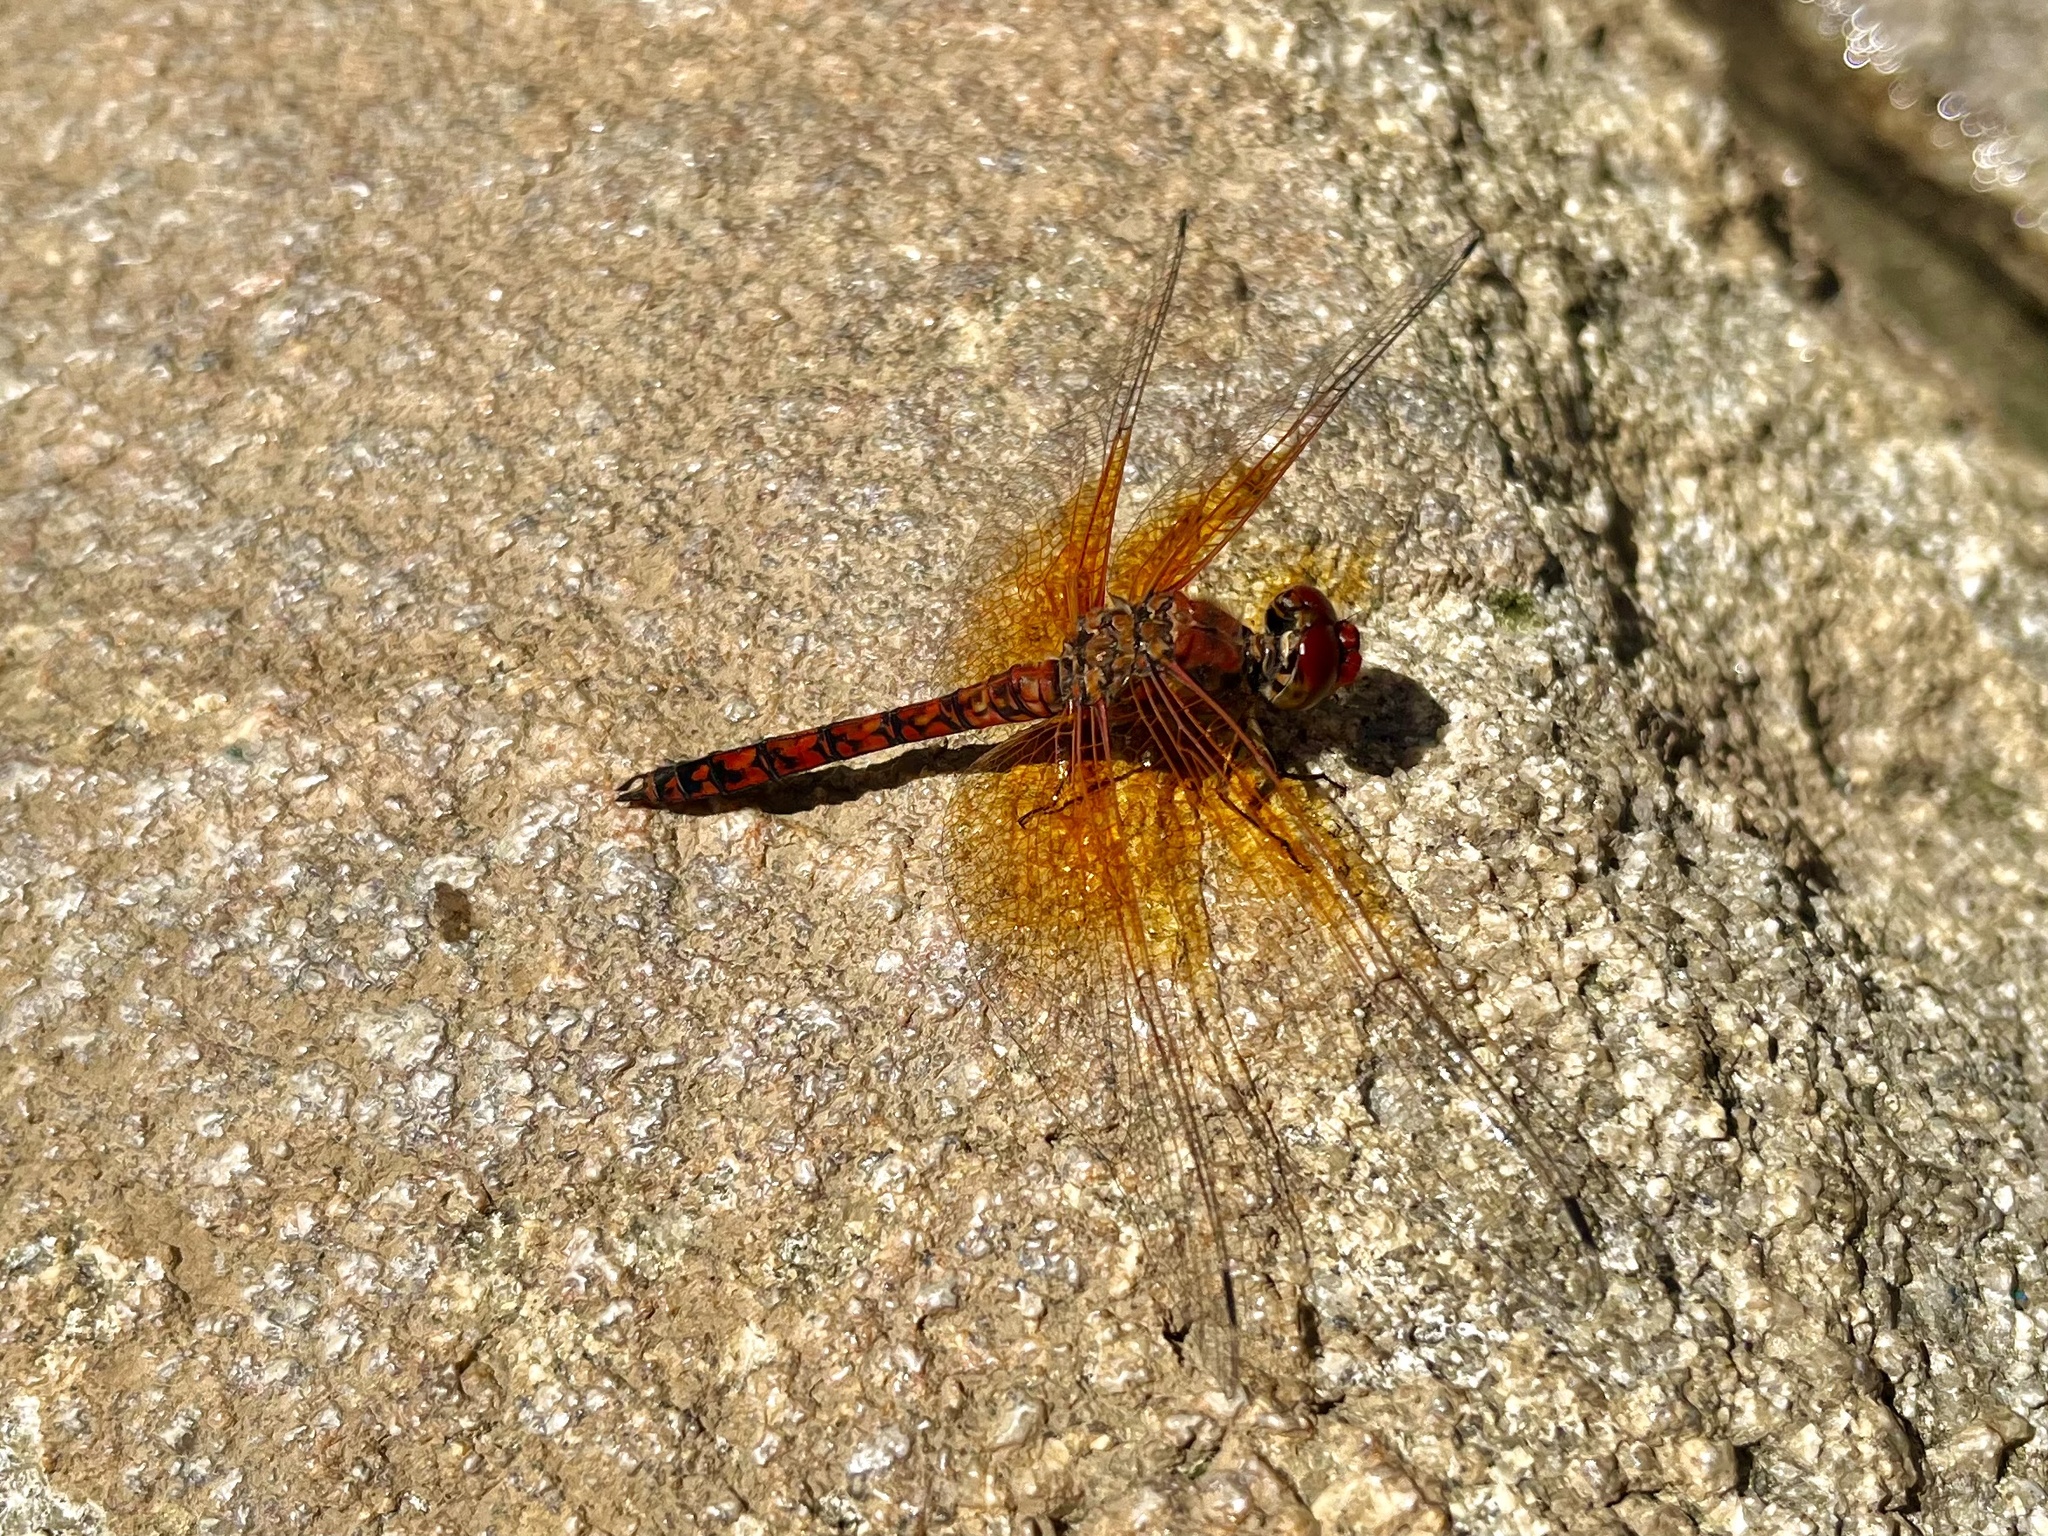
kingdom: Animalia
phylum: Arthropoda
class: Insecta
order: Odonata
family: Libellulidae
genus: Paltothemis
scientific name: Paltothemis lineatipes
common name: Red rock skimmer
